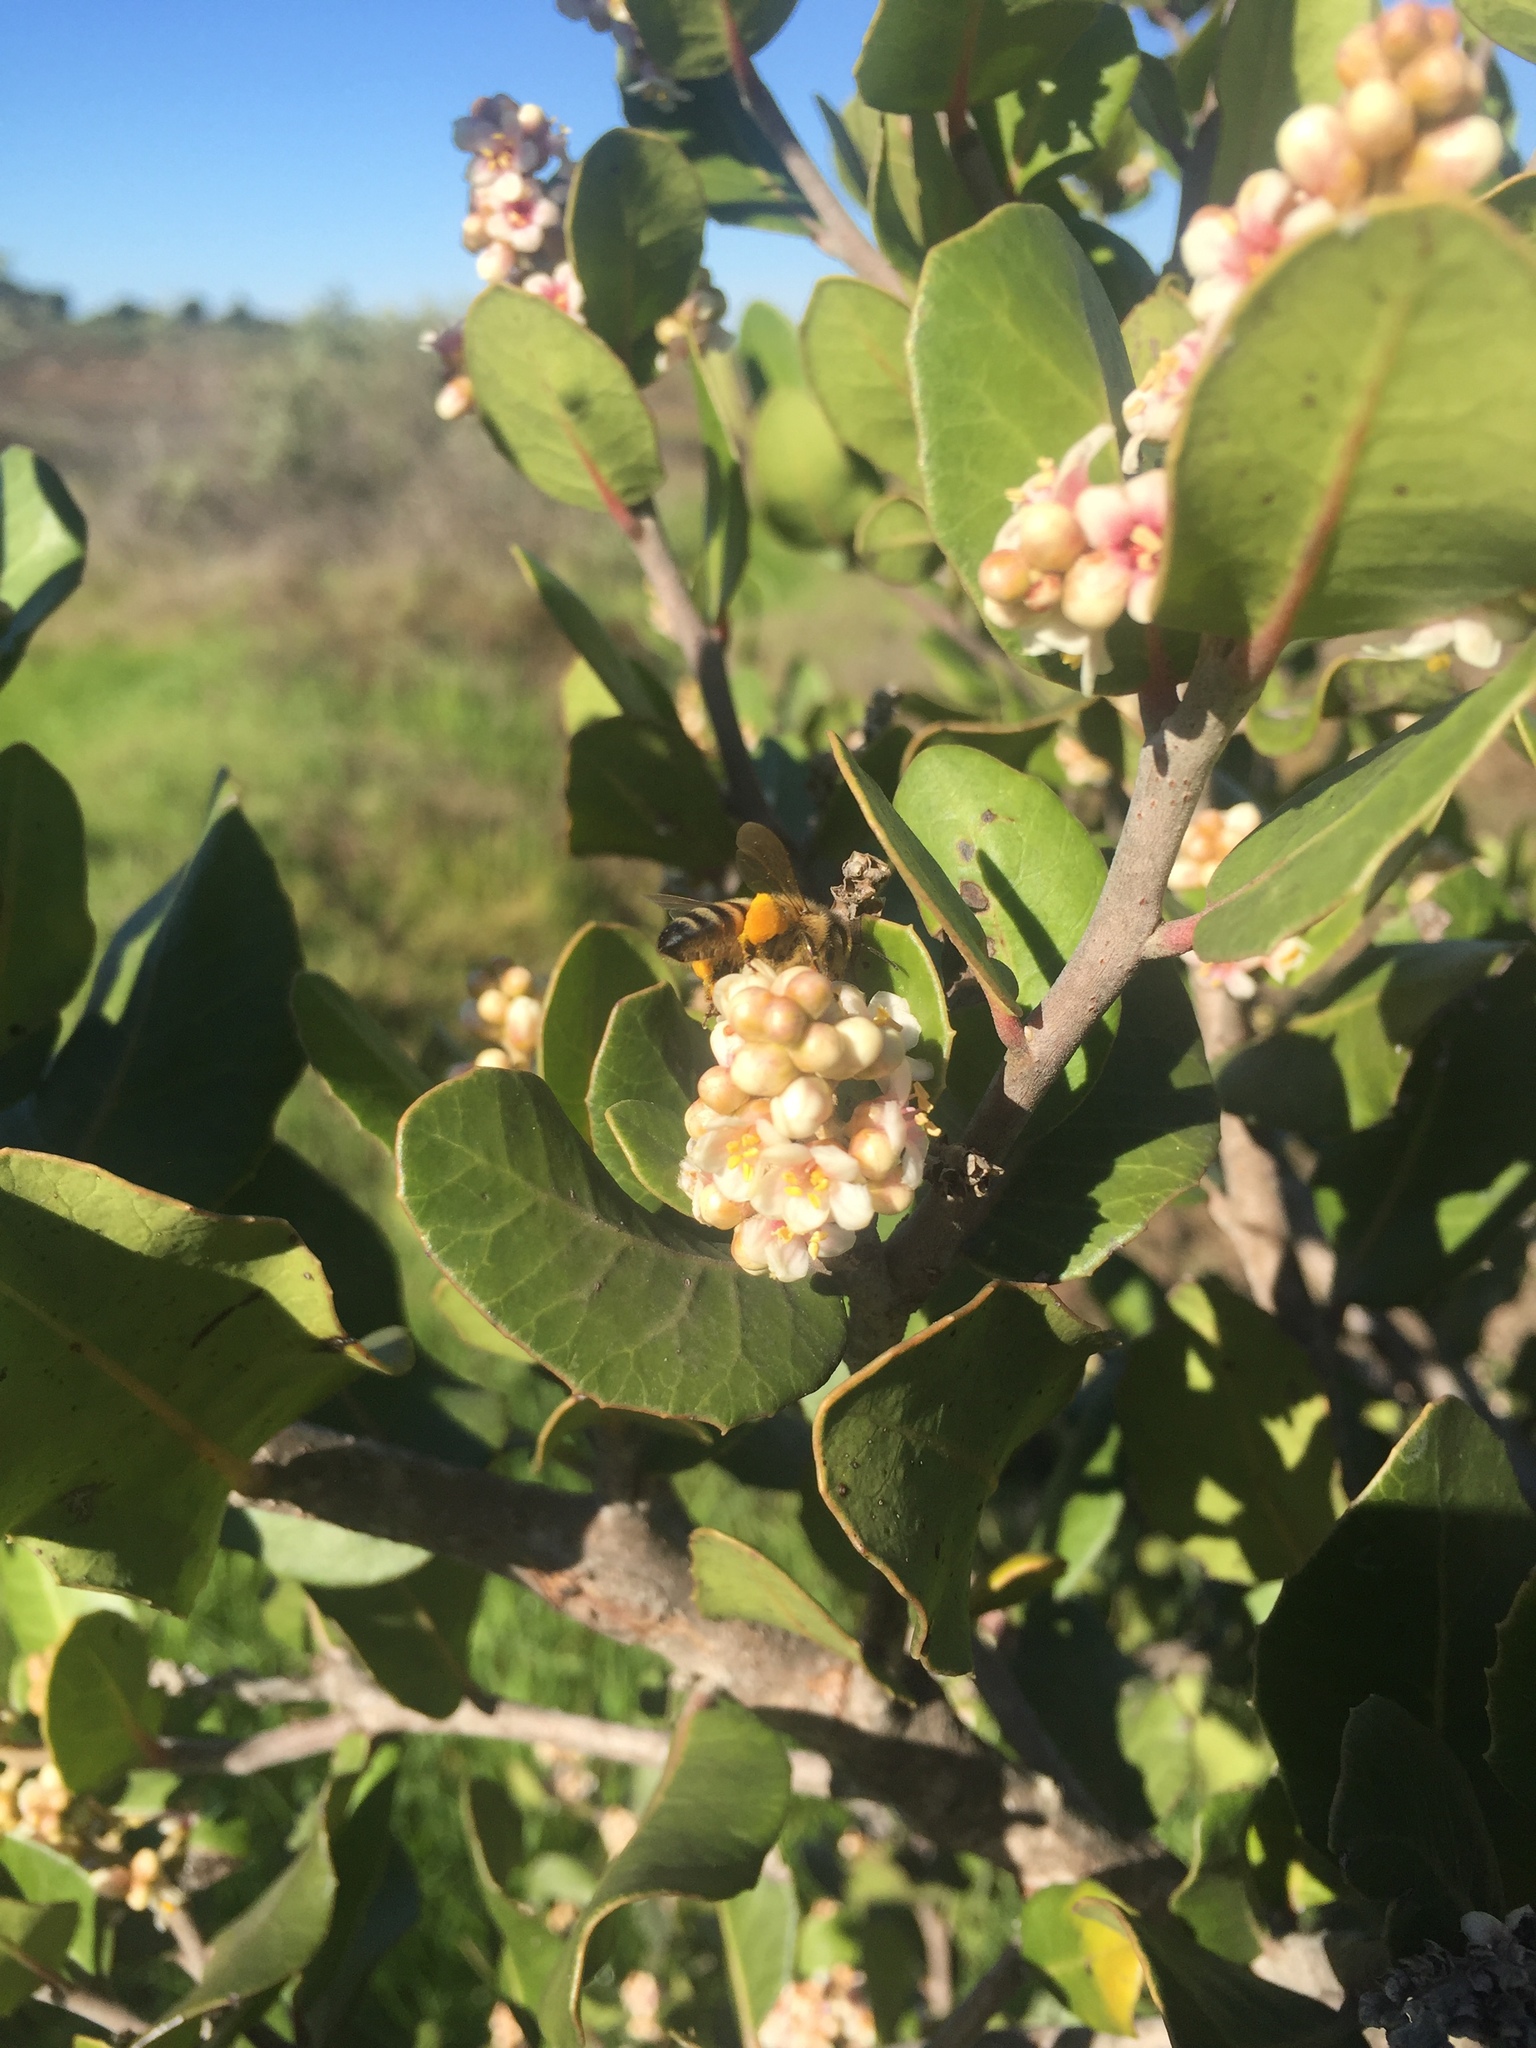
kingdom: Animalia
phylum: Arthropoda
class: Insecta
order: Hymenoptera
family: Apidae
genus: Apis
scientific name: Apis mellifera
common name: Honey bee
